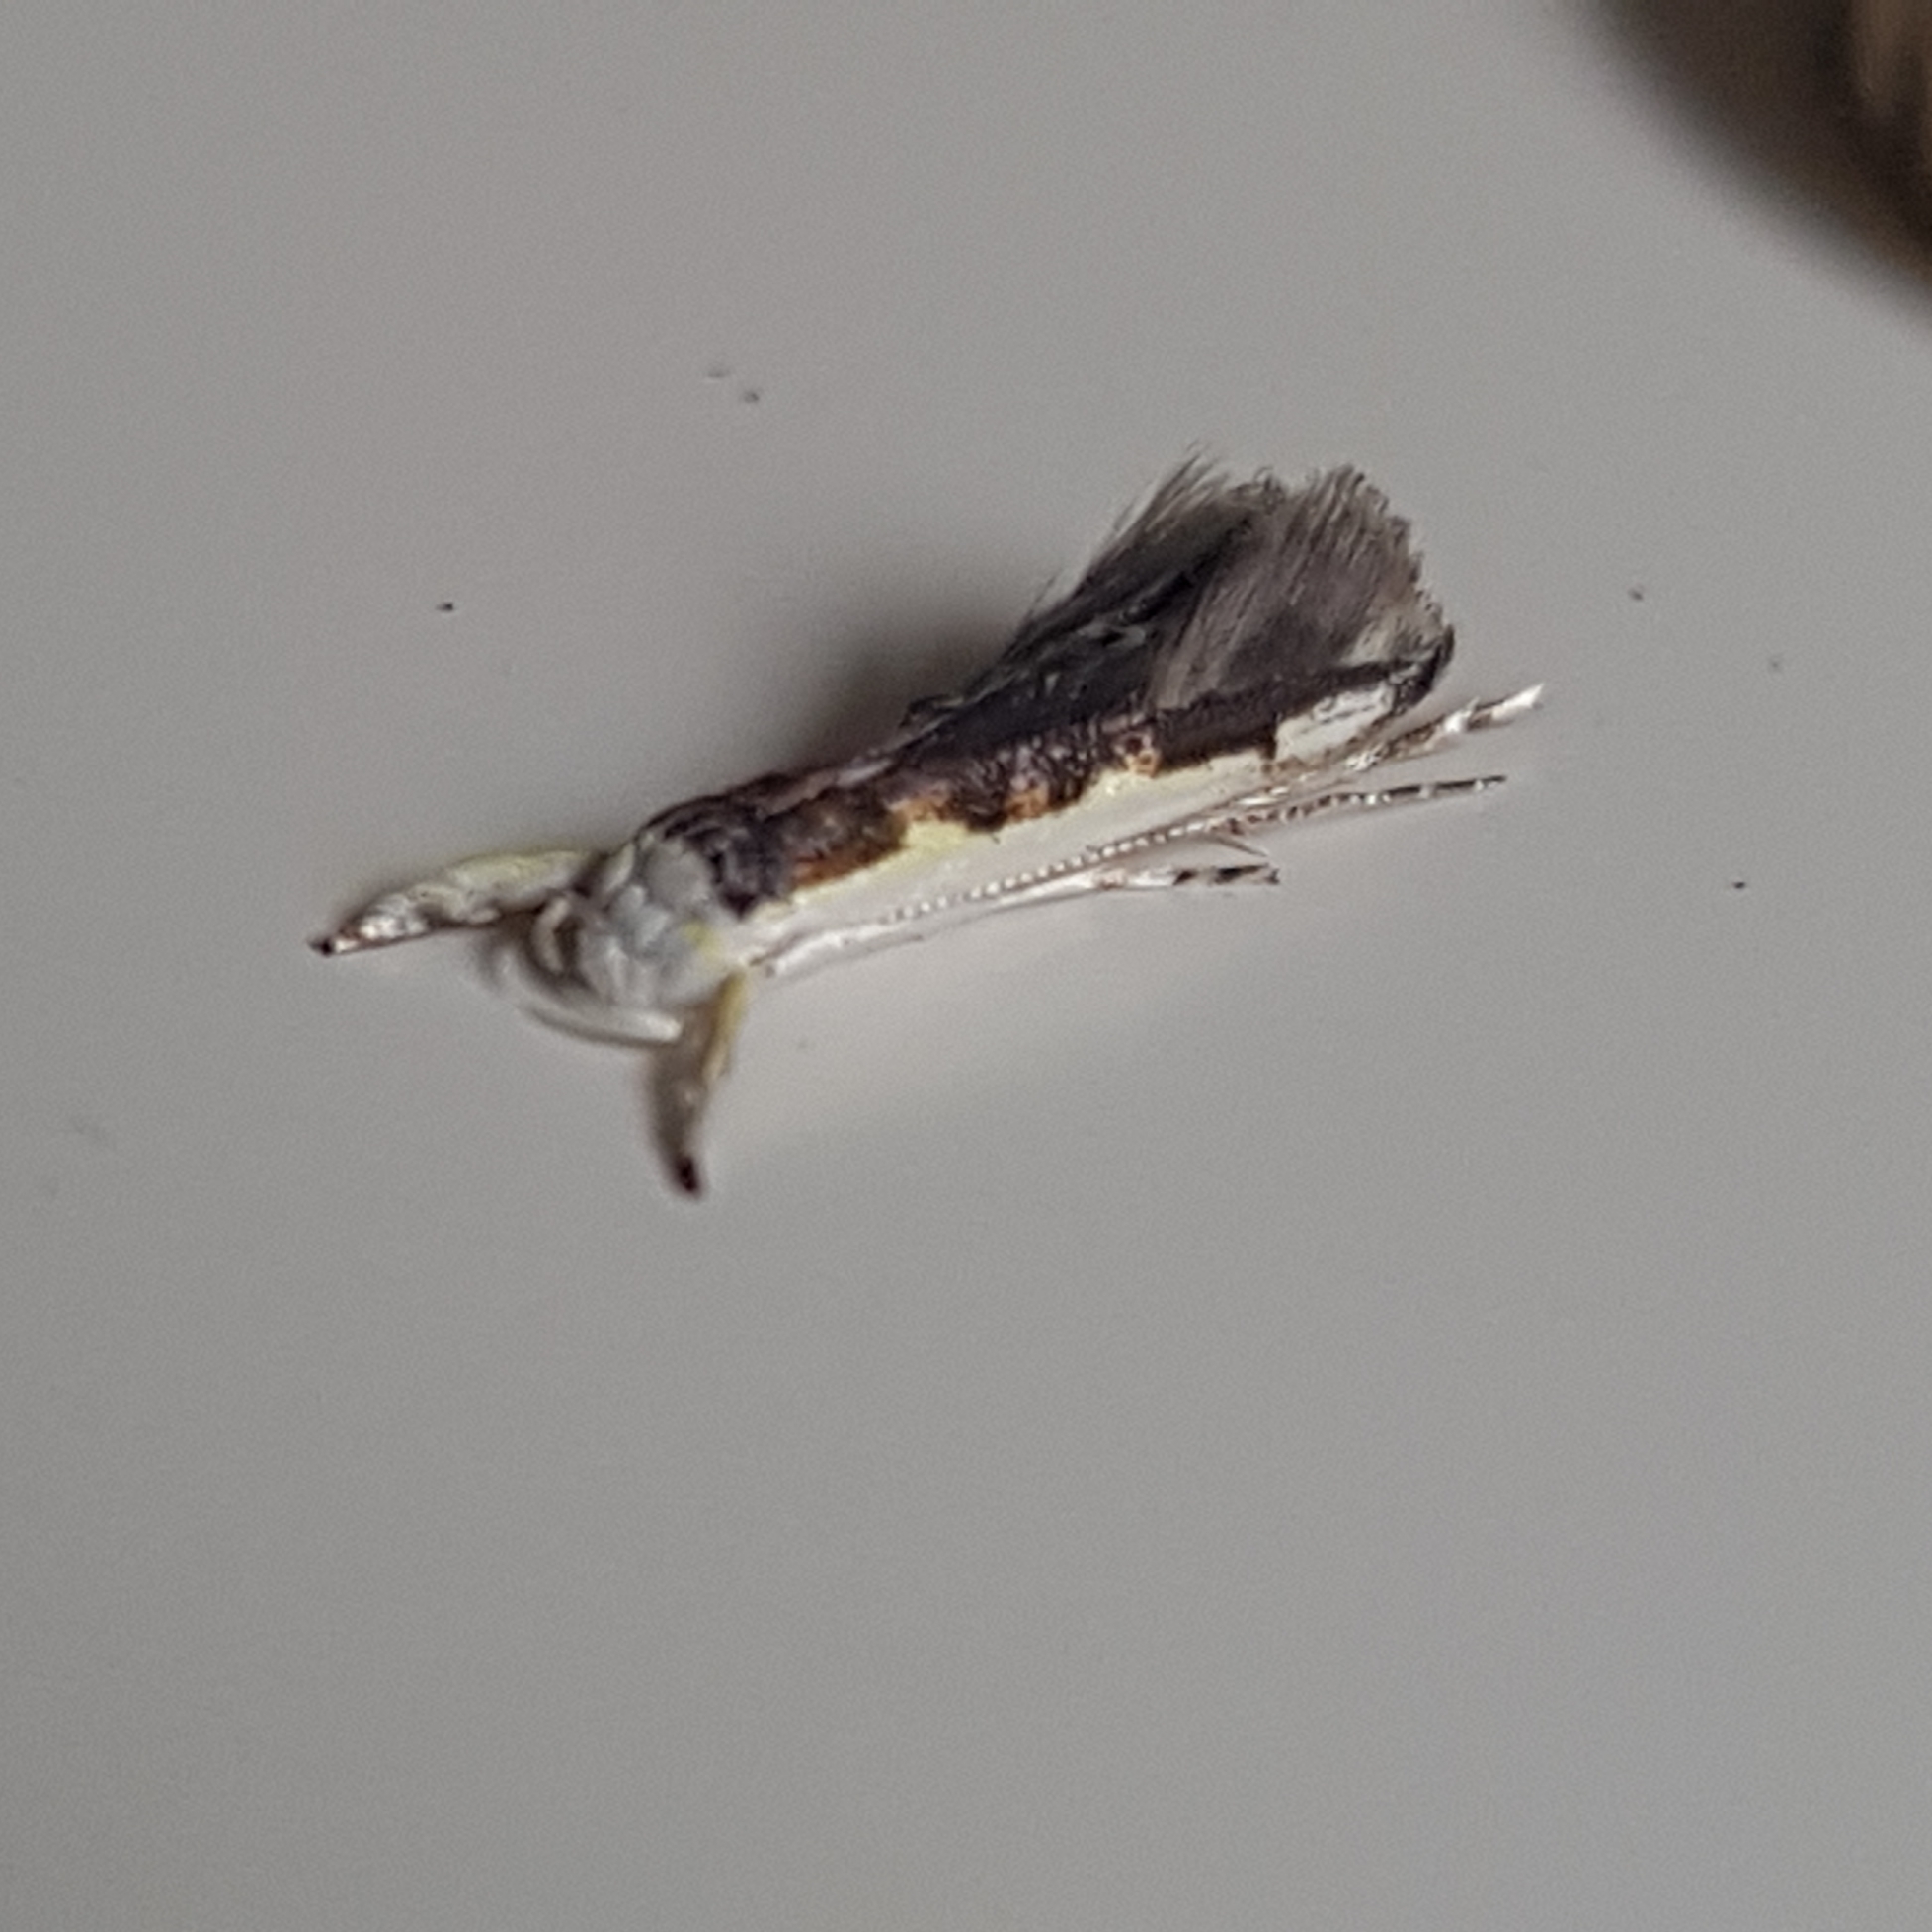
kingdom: Animalia
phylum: Arthropoda
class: Insecta
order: Lepidoptera
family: Roeslerstammiidae
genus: Vanicela
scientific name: Vanicela disjunctella
